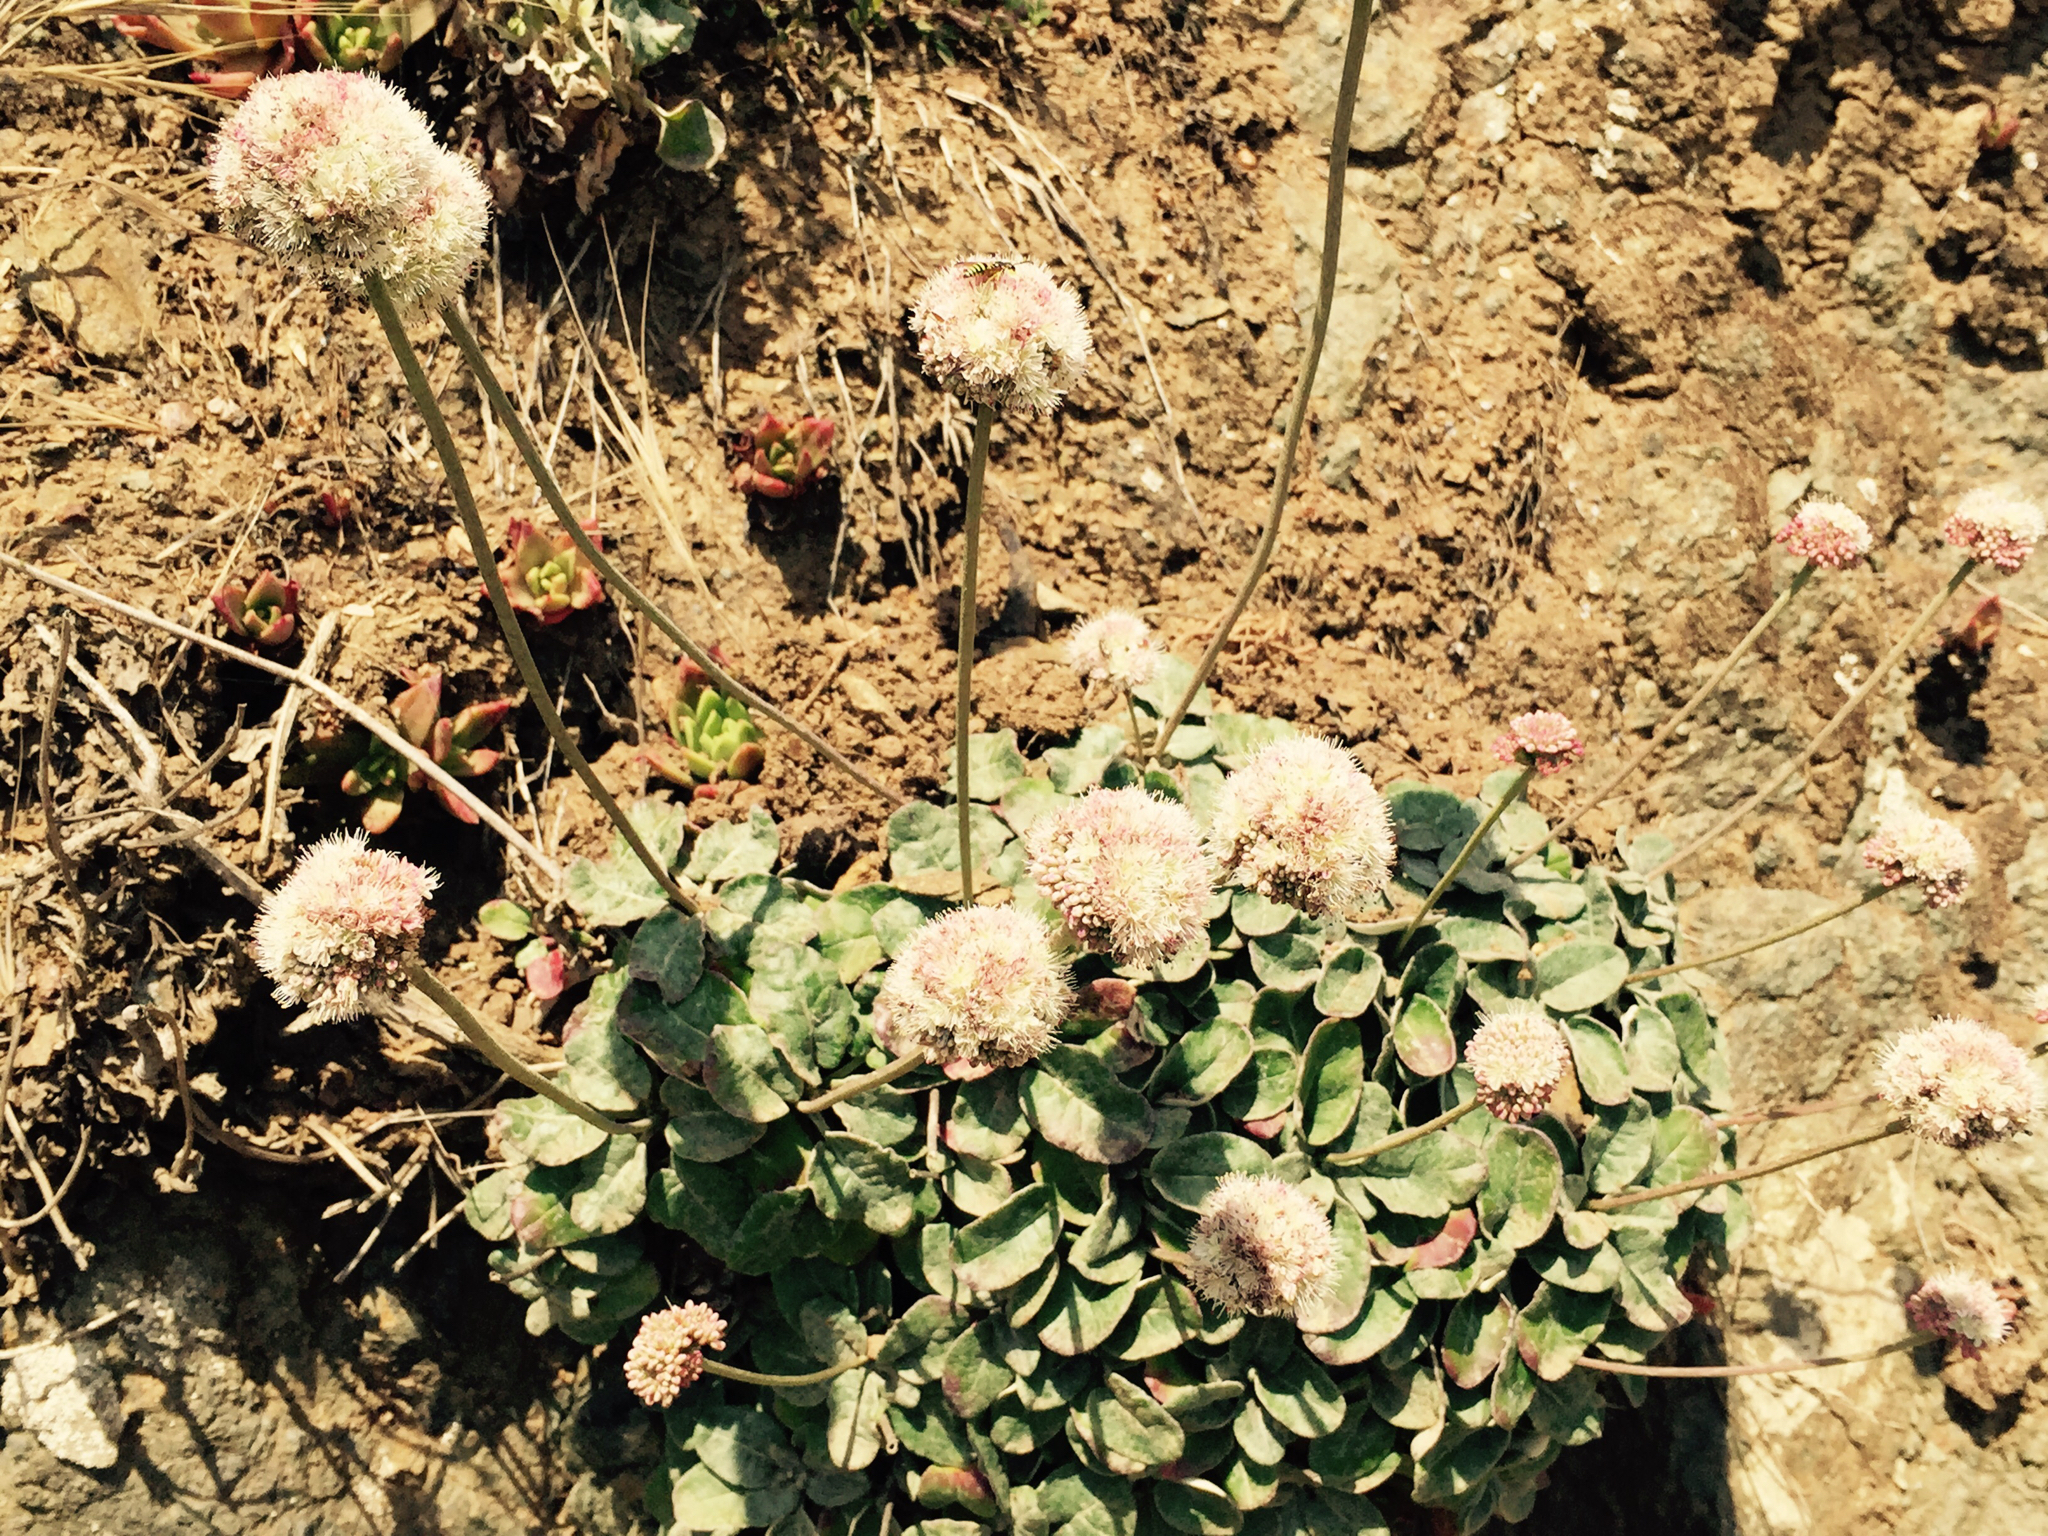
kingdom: Plantae
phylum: Tracheophyta
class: Magnoliopsida
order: Caryophyllales
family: Polygonaceae
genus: Eriogonum
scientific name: Eriogonum latifolium
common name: Seaside wild buckwheat
